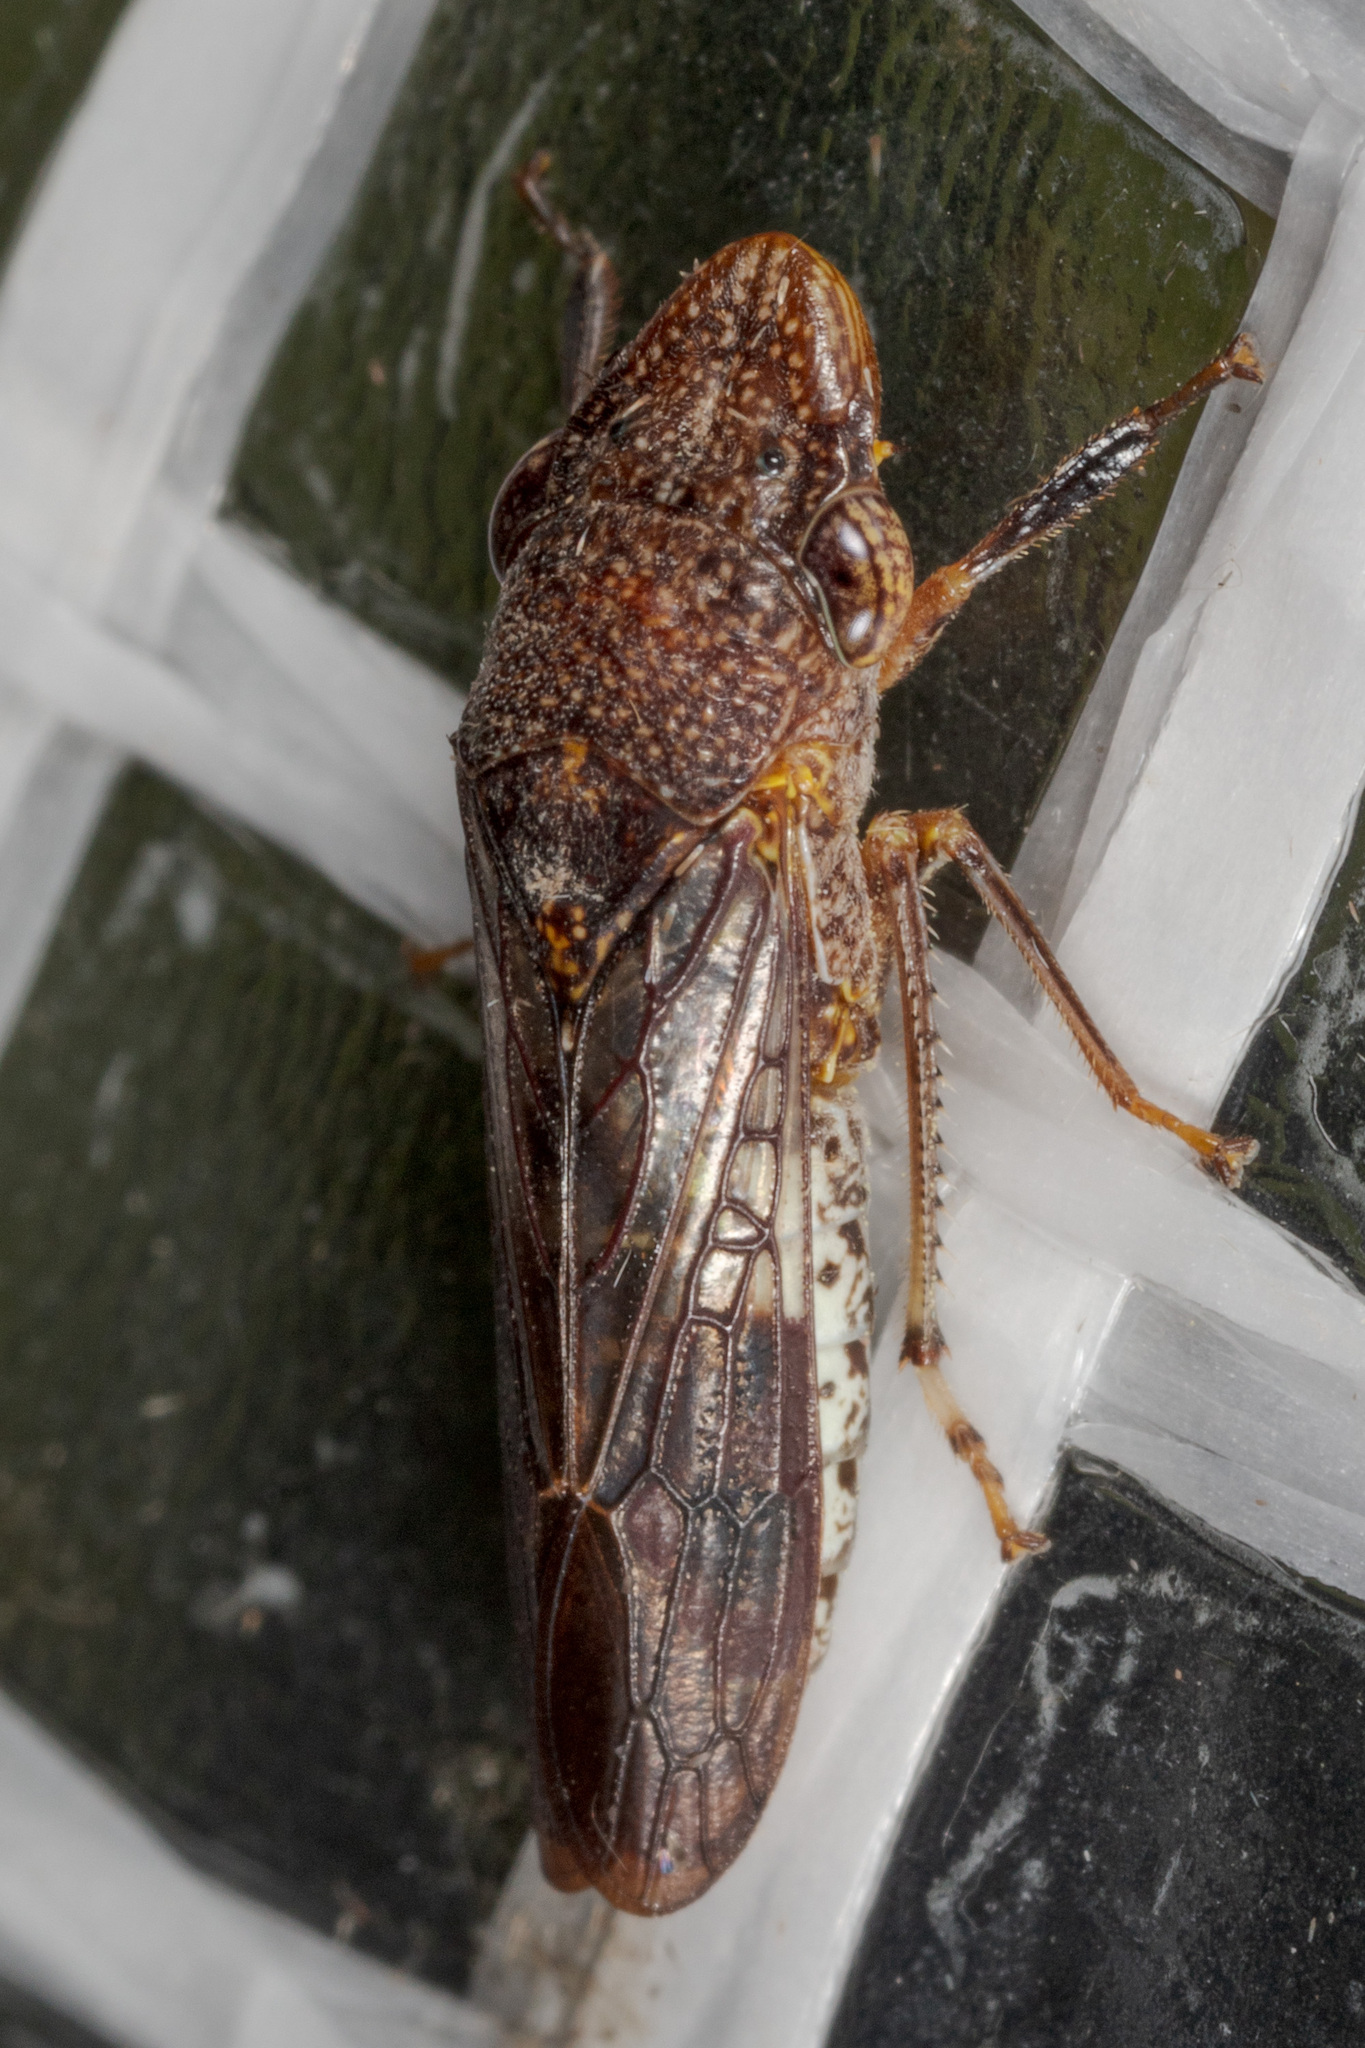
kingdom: Animalia
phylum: Arthropoda
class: Insecta
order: Hemiptera
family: Cicadellidae
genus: Homalodisca
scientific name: Homalodisca vitripennis
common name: Glassy-winged sharpshooter
